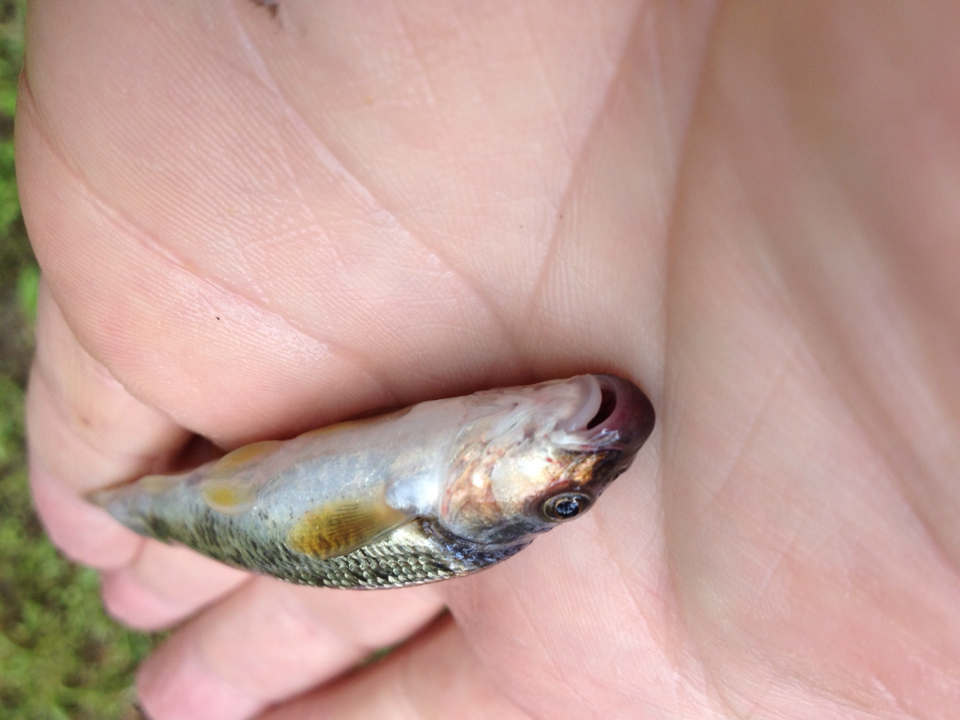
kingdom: Animalia
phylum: Chordata
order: Cypriniformes
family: Cyprinidae
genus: Campostoma
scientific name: Campostoma anomalum
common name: Central stoneroller
